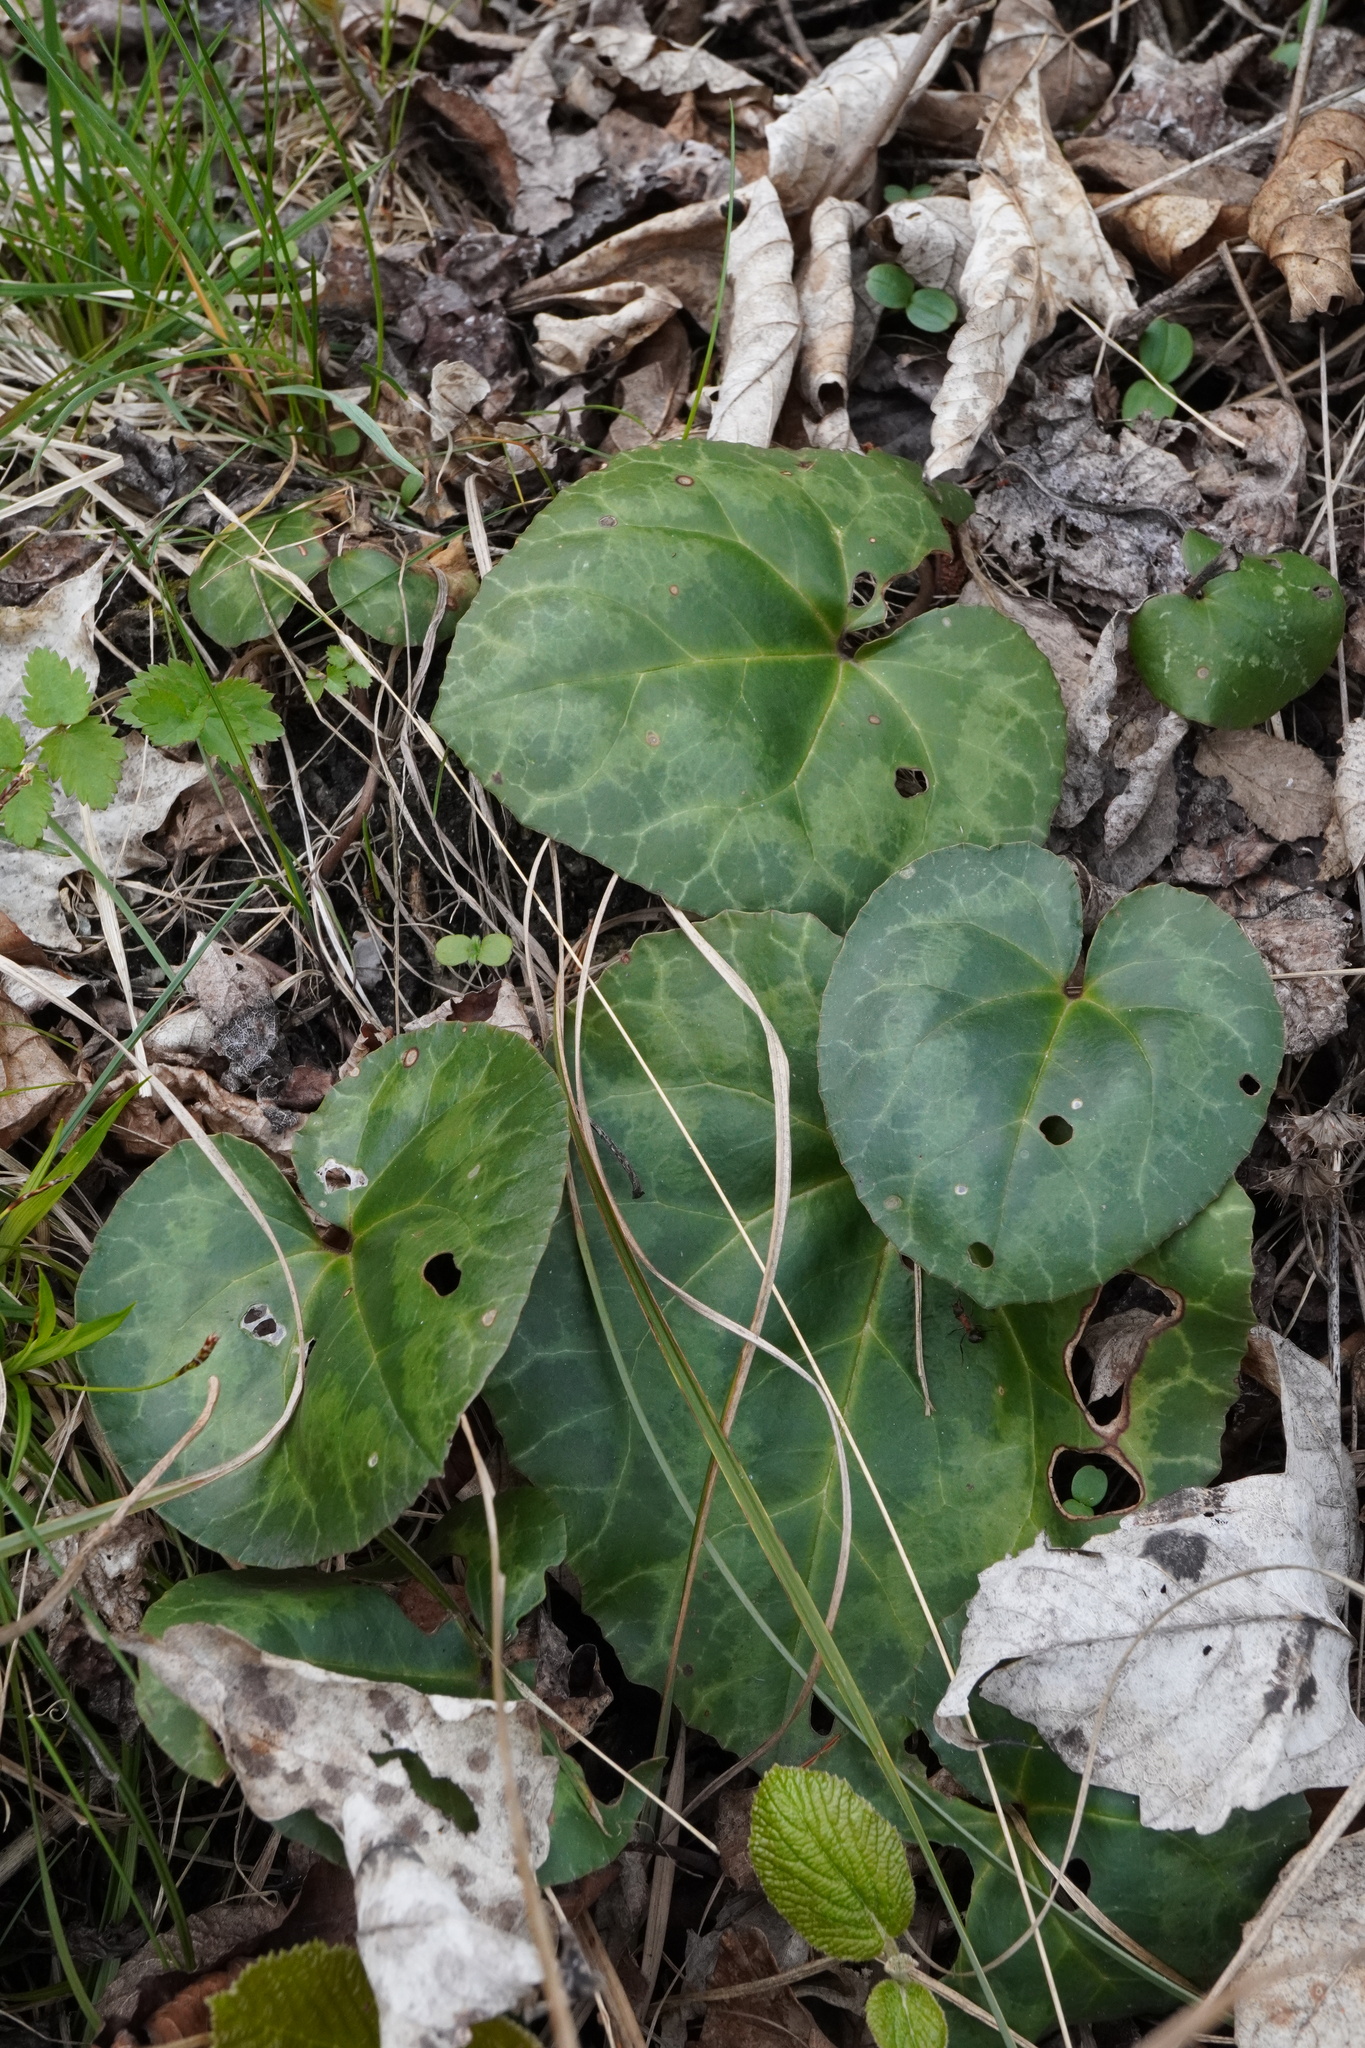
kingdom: Plantae
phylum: Tracheophyta
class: Magnoliopsida
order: Ericales
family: Primulaceae
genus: Cyclamen
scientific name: Cyclamen purpurascens
